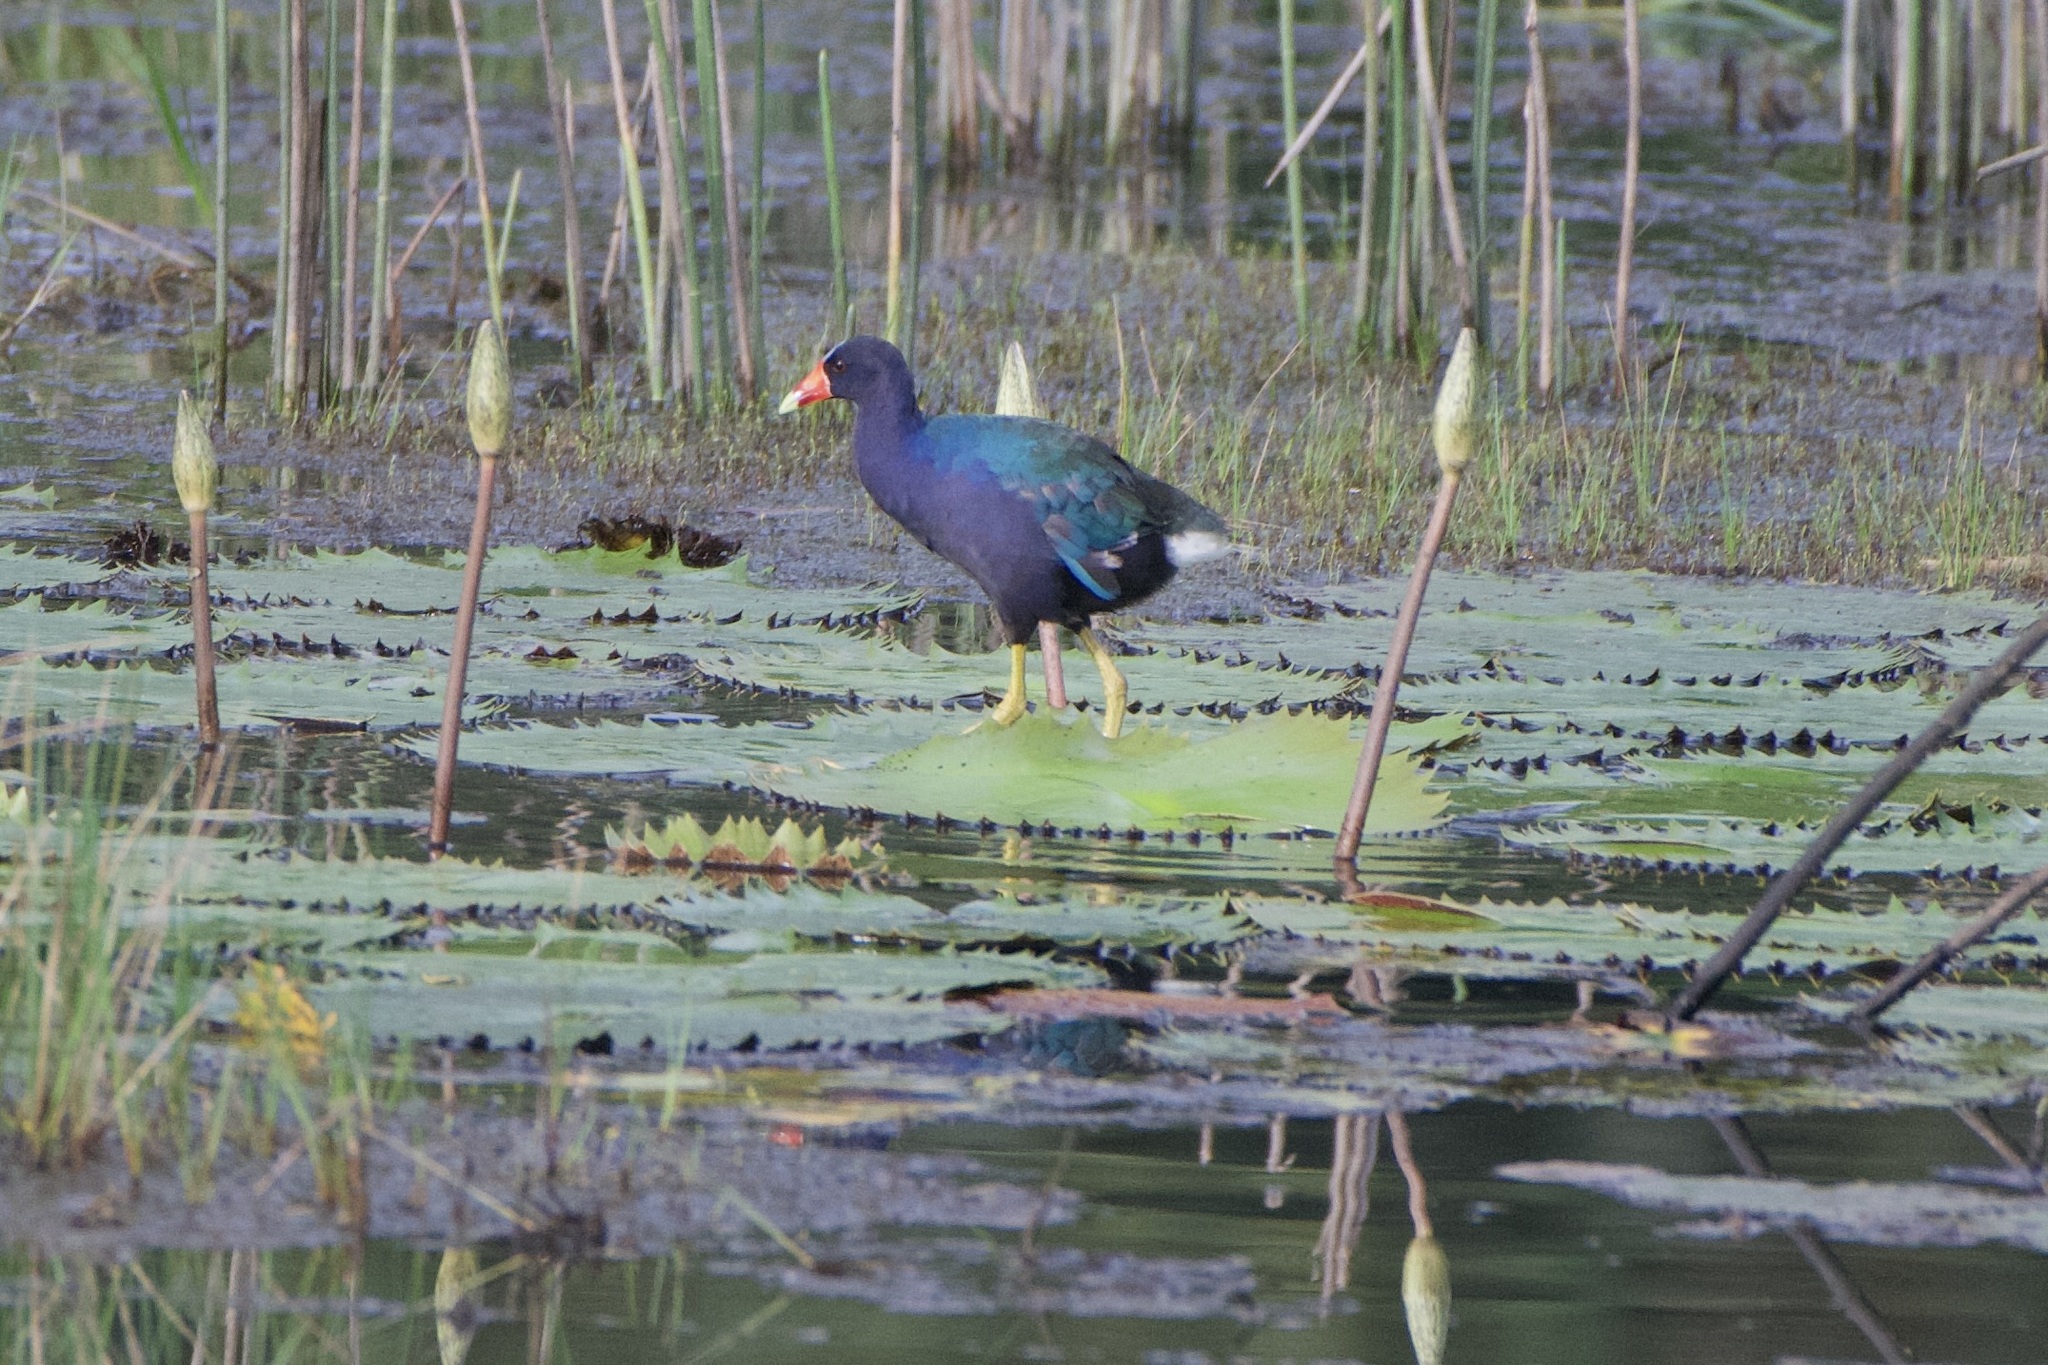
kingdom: Animalia
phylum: Chordata
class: Aves
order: Gruiformes
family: Rallidae
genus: Porphyrio
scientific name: Porphyrio martinica
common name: Purple gallinule
